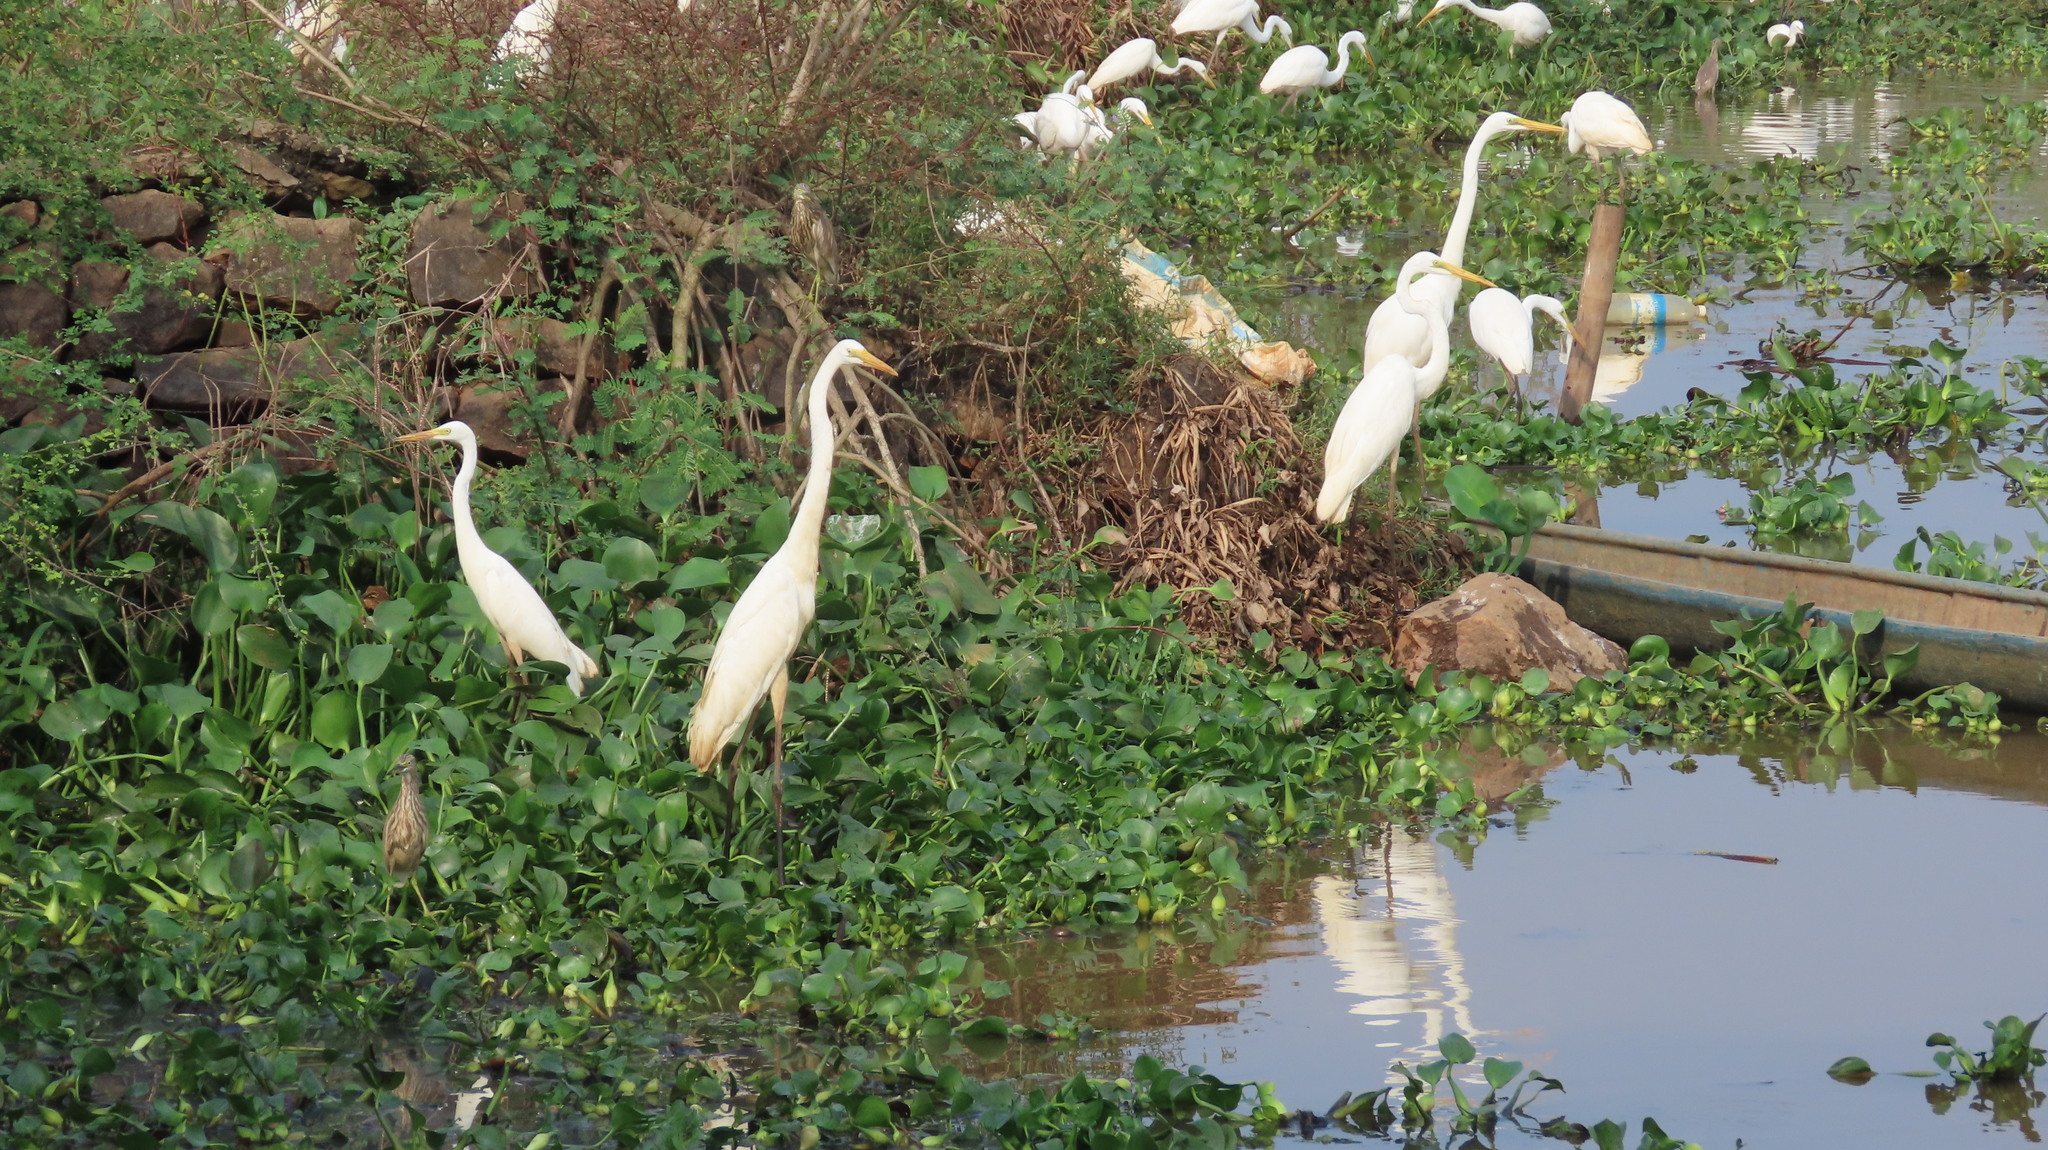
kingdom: Animalia
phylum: Chordata
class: Aves
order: Pelecaniformes
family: Ardeidae
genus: Ardea
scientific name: Ardea alba
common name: Great egret
